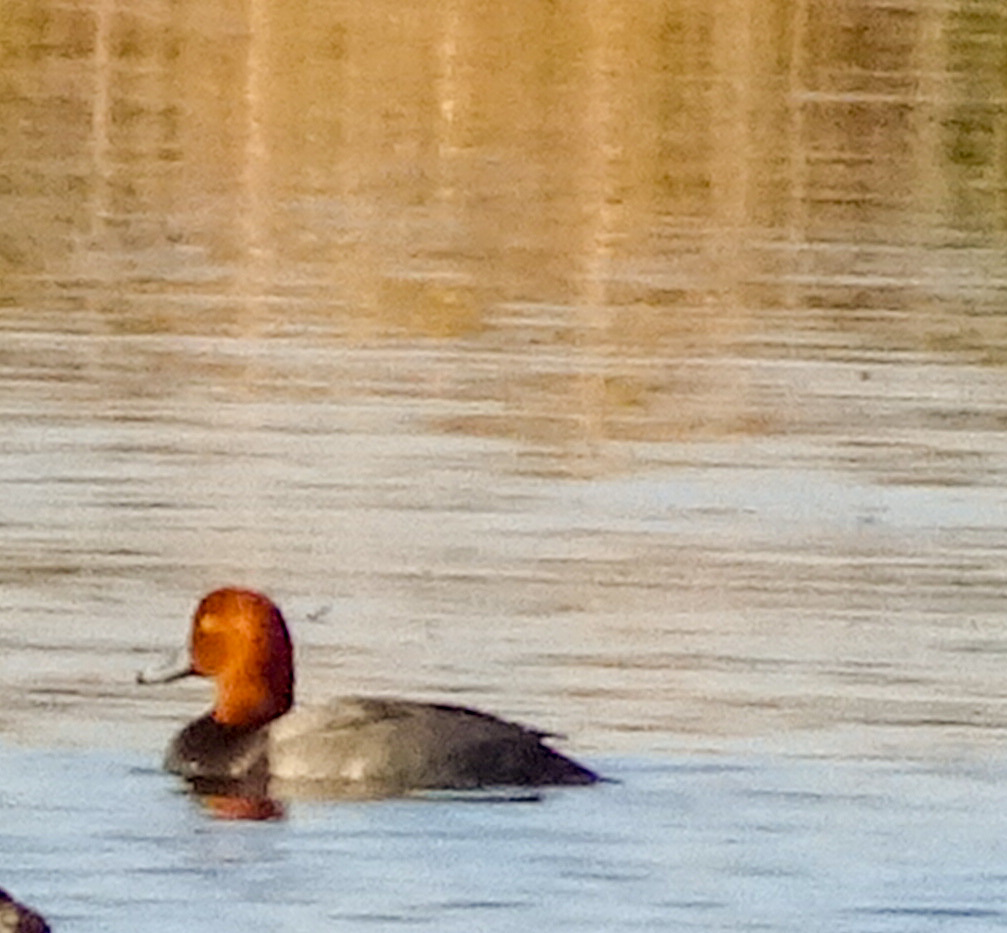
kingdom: Animalia
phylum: Chordata
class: Aves
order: Anseriformes
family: Anatidae
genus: Aythya
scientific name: Aythya americana
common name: Redhead
